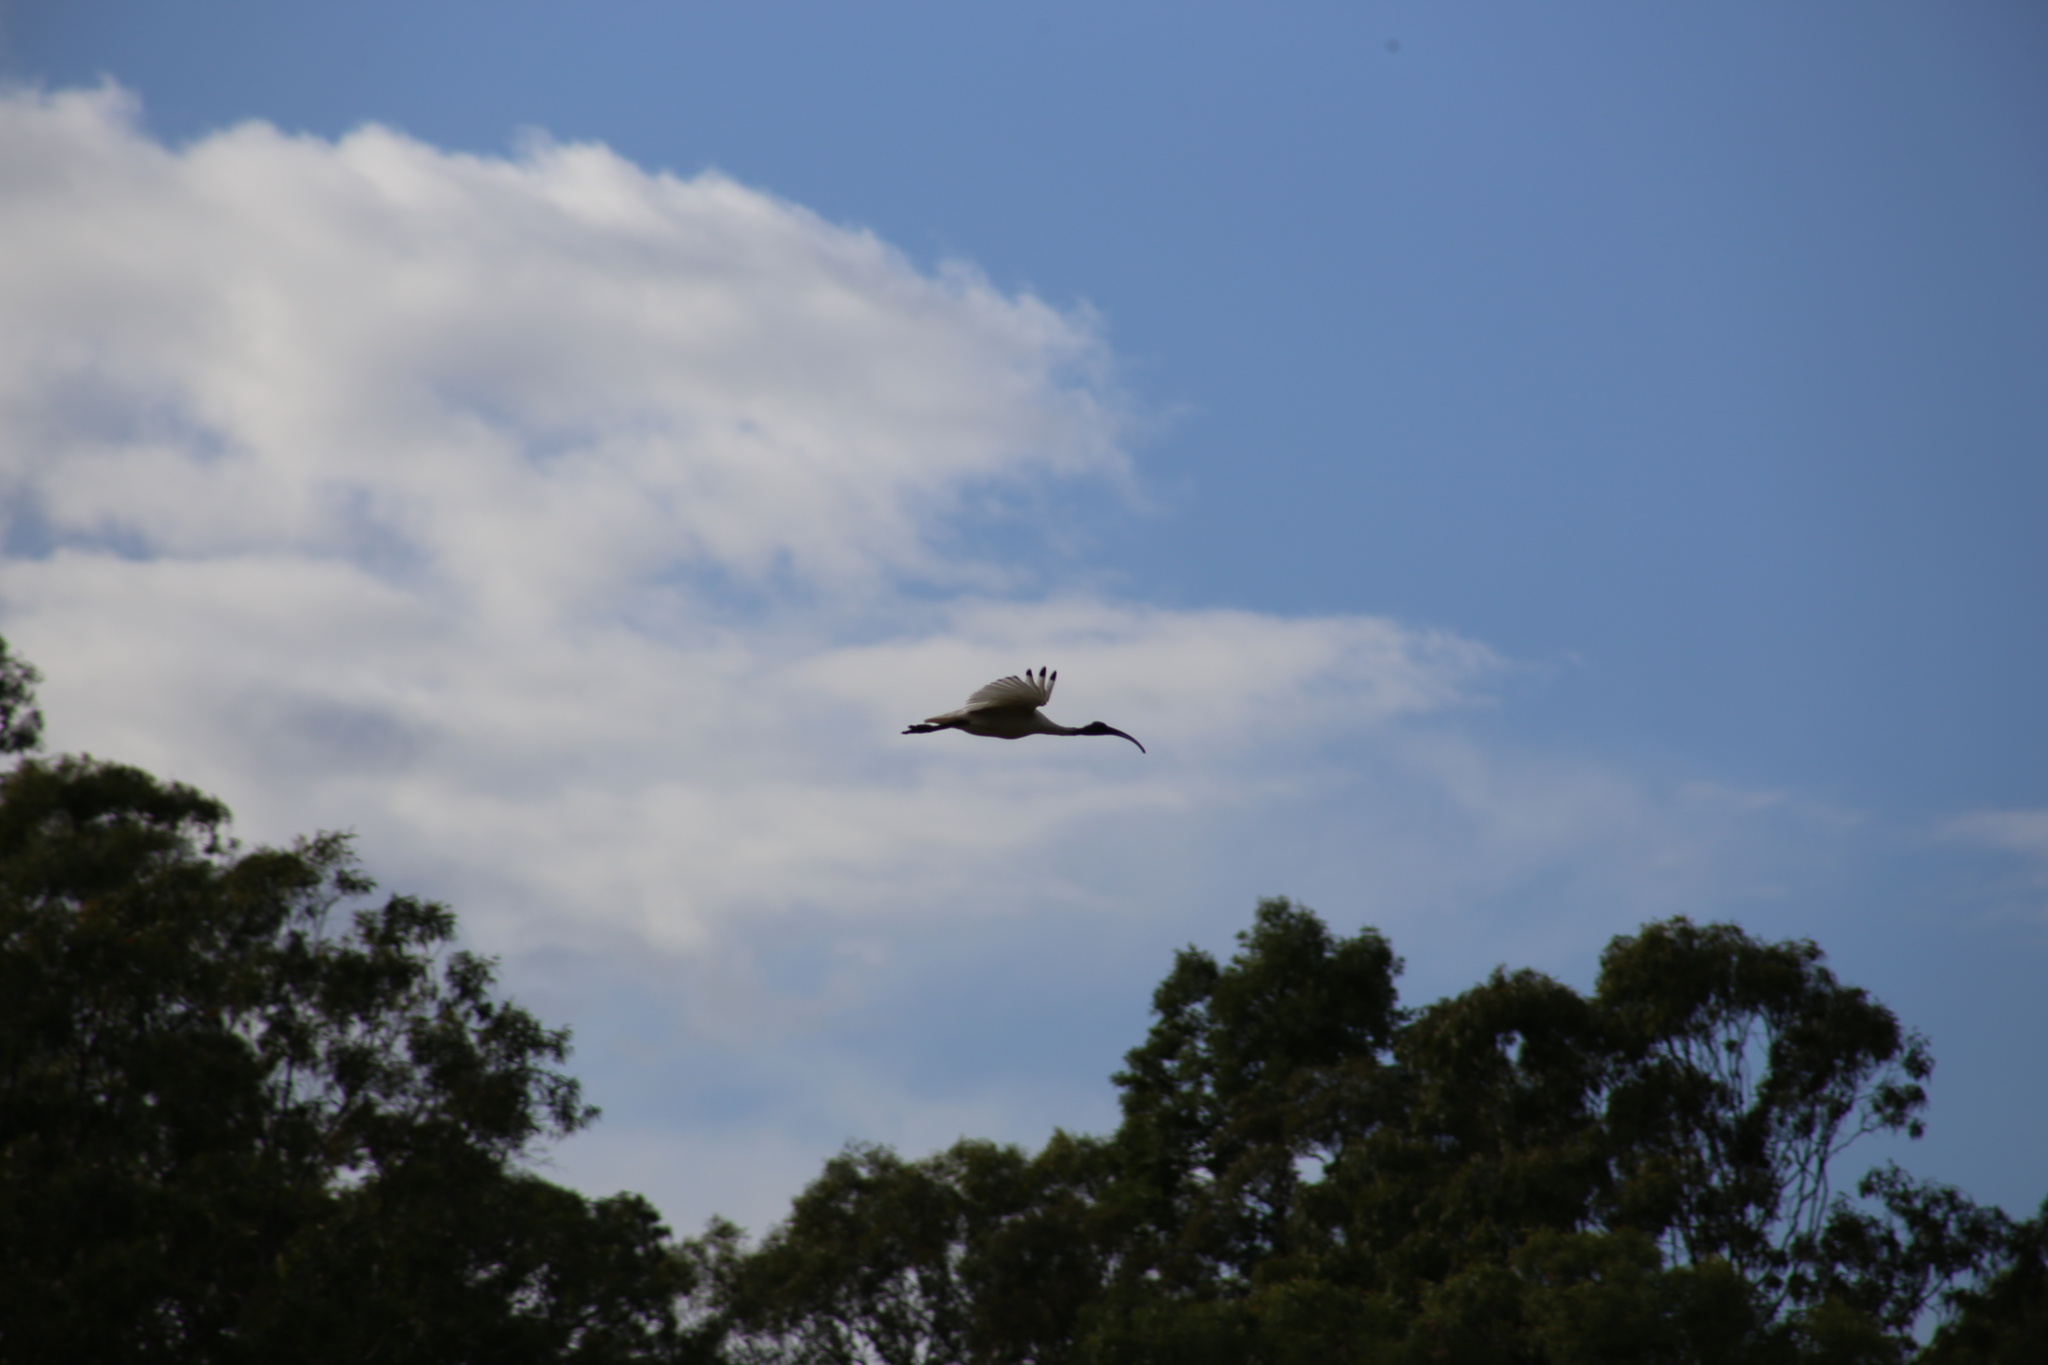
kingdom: Animalia
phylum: Chordata
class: Aves
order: Pelecaniformes
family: Threskiornithidae
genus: Threskiornis
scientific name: Threskiornis molucca
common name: Australian white ibis
